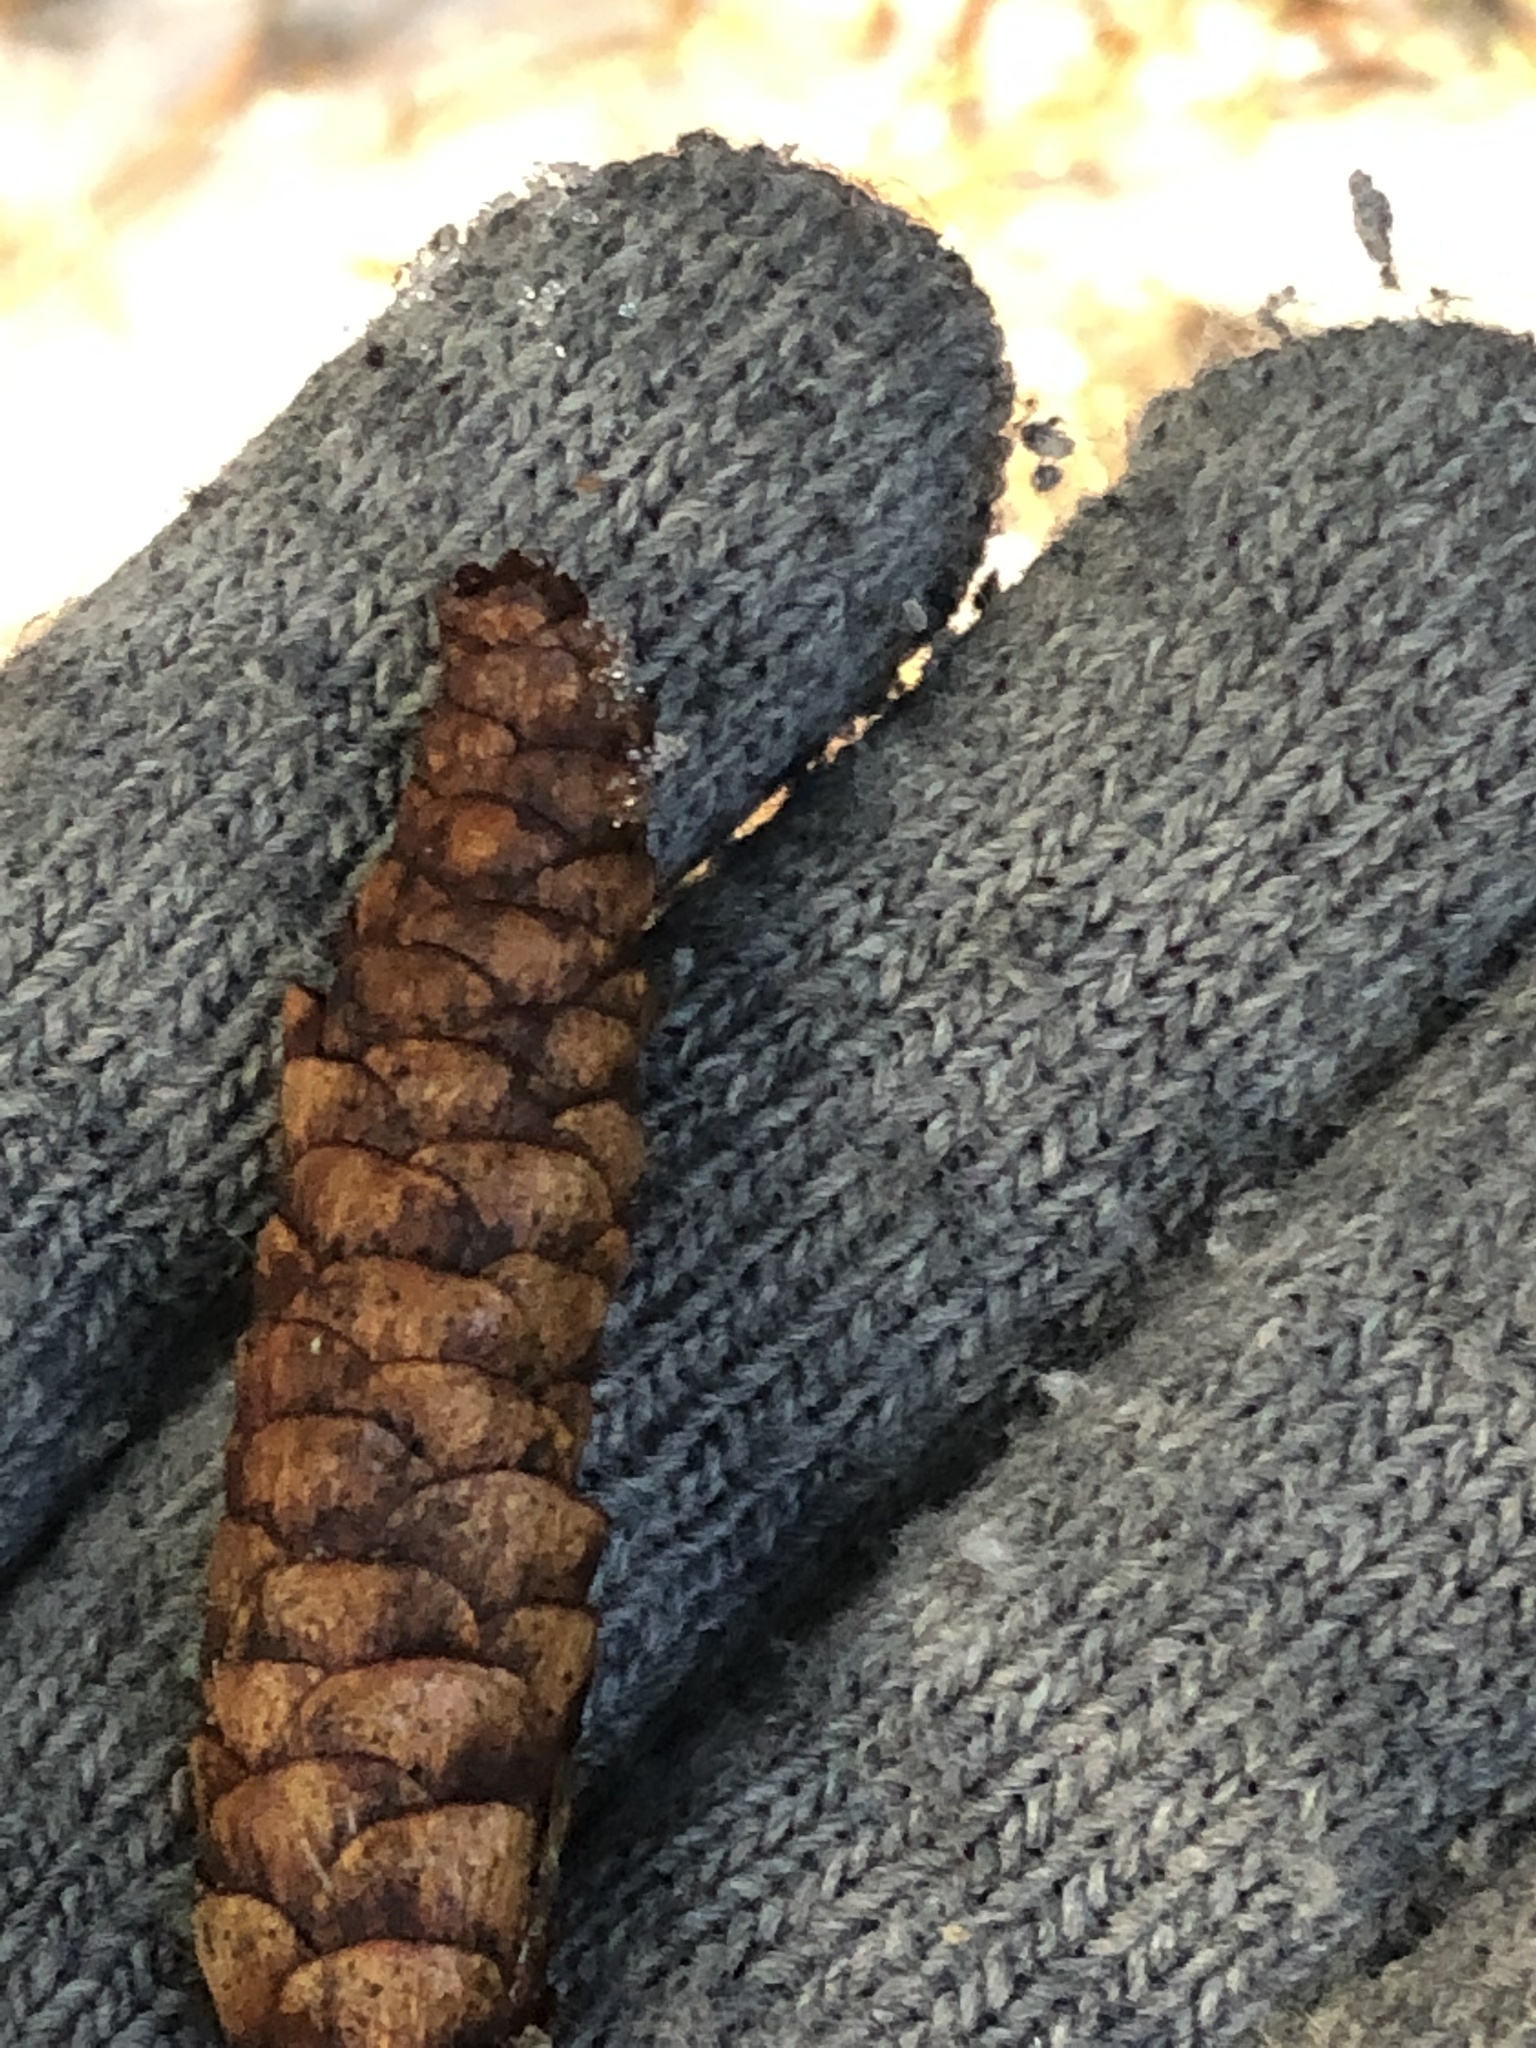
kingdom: Plantae
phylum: Tracheophyta
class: Pinopsida
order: Pinales
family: Pinaceae
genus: Picea
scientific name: Picea glauca
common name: White spruce
